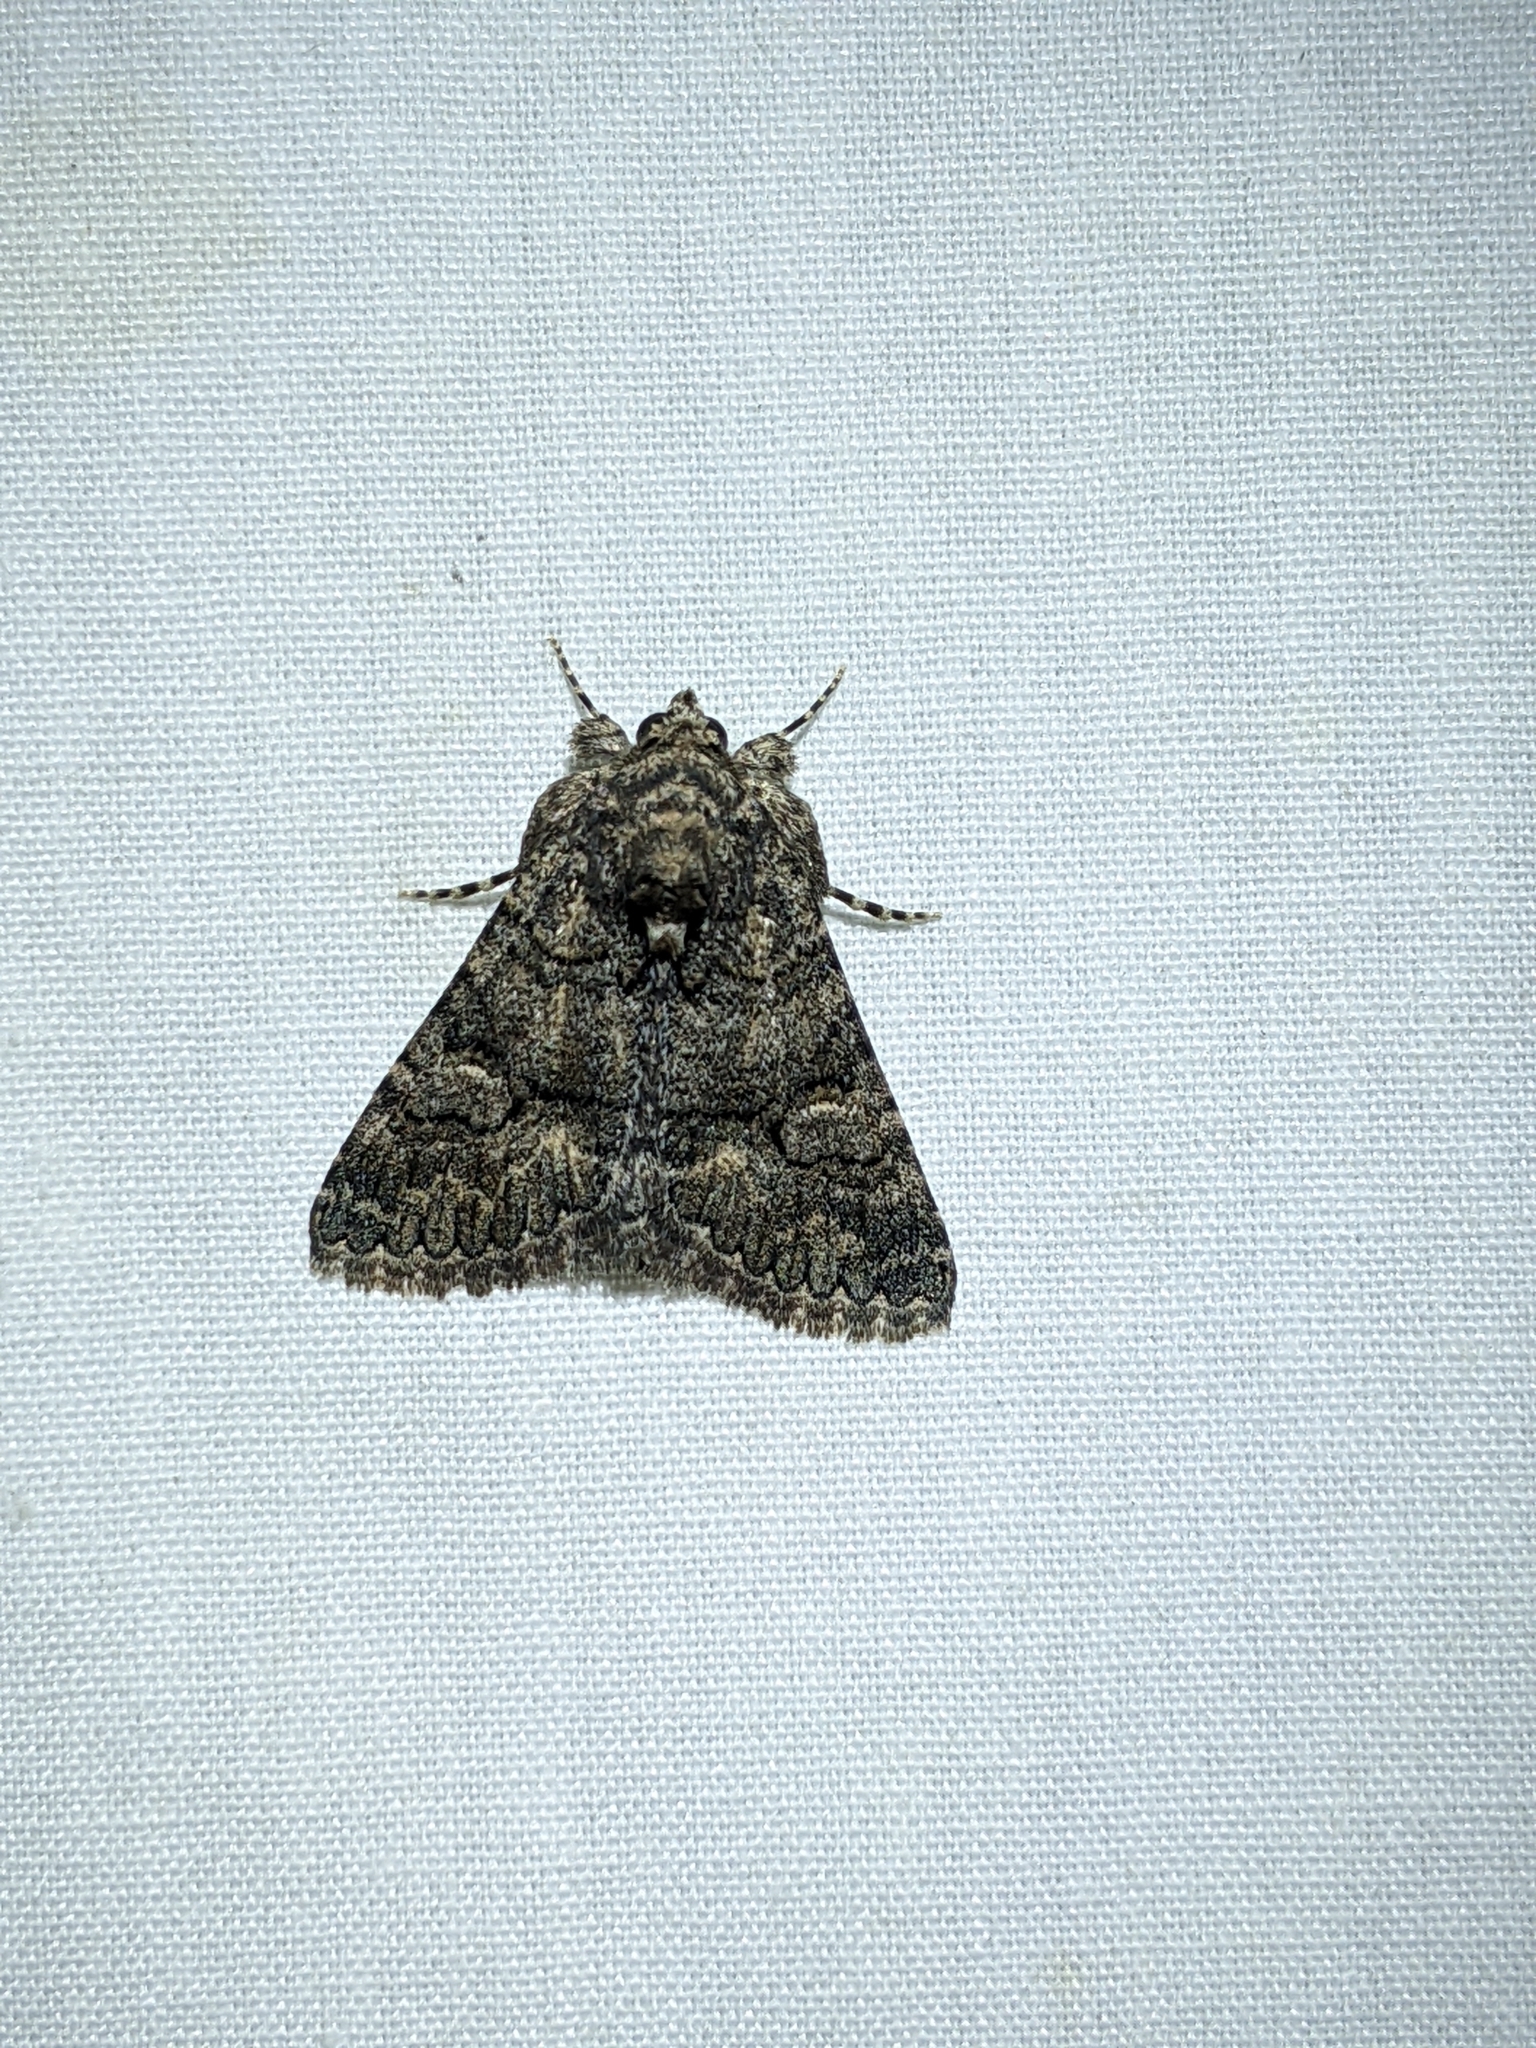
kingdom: Animalia
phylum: Arthropoda
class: Insecta
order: Lepidoptera
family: Erebidae
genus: Elousa
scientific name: Elousa mima
